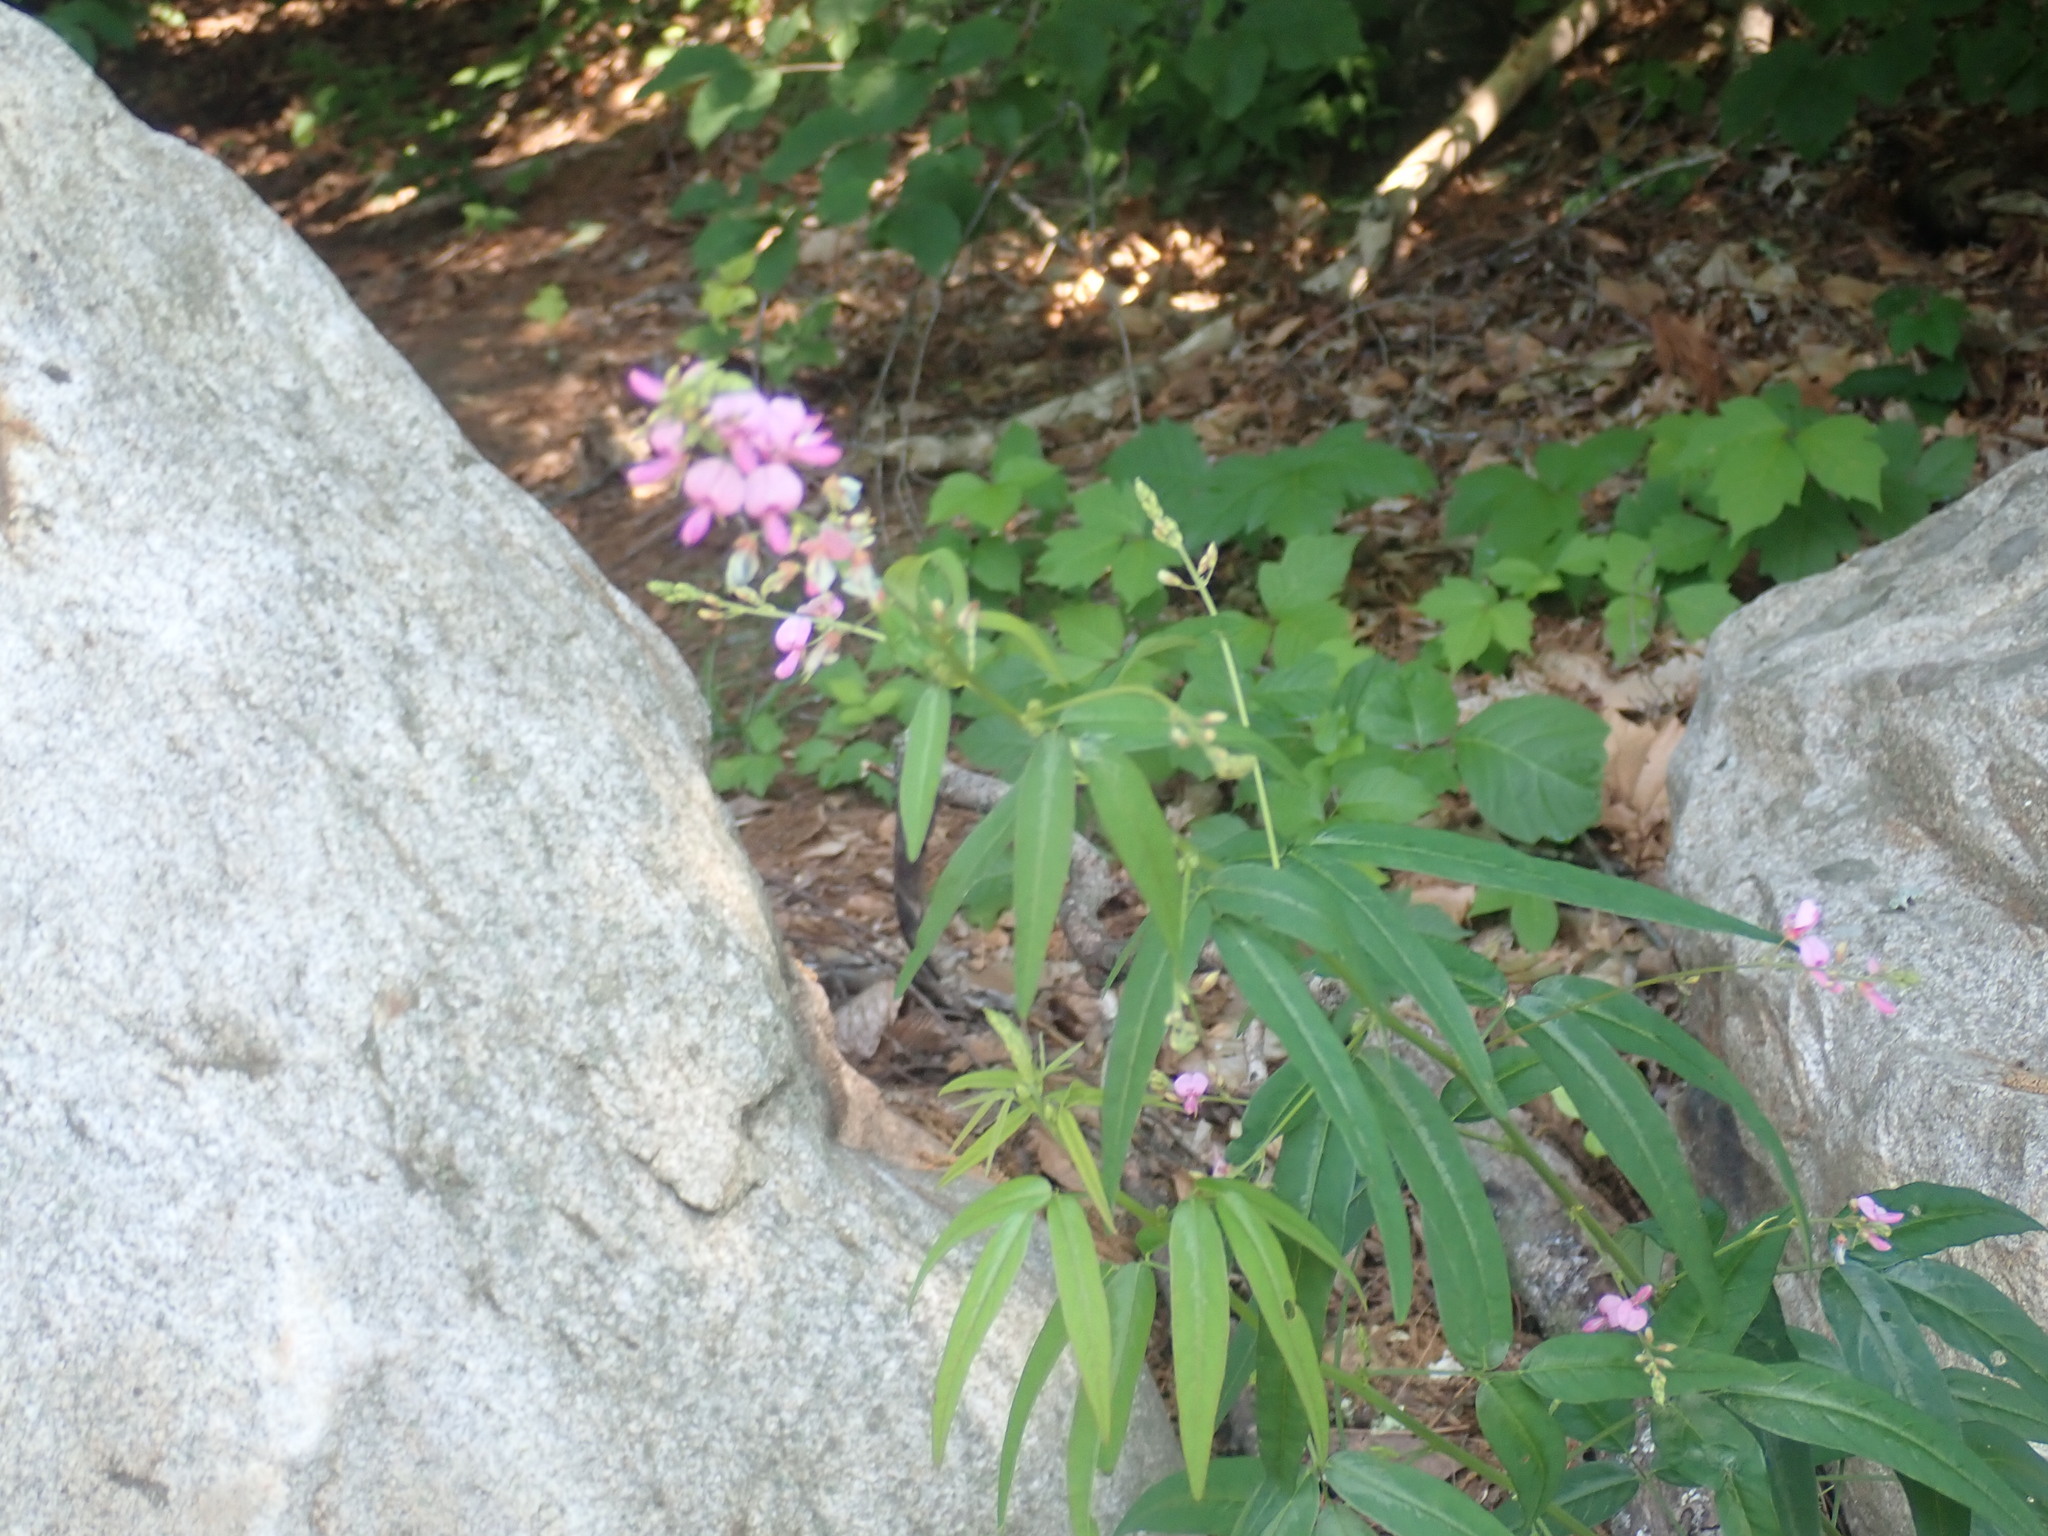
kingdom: Plantae
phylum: Tracheophyta
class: Magnoliopsida
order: Fabales
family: Fabaceae
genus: Desmodium
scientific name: Desmodium paniculatum
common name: Panicled tick-clover
